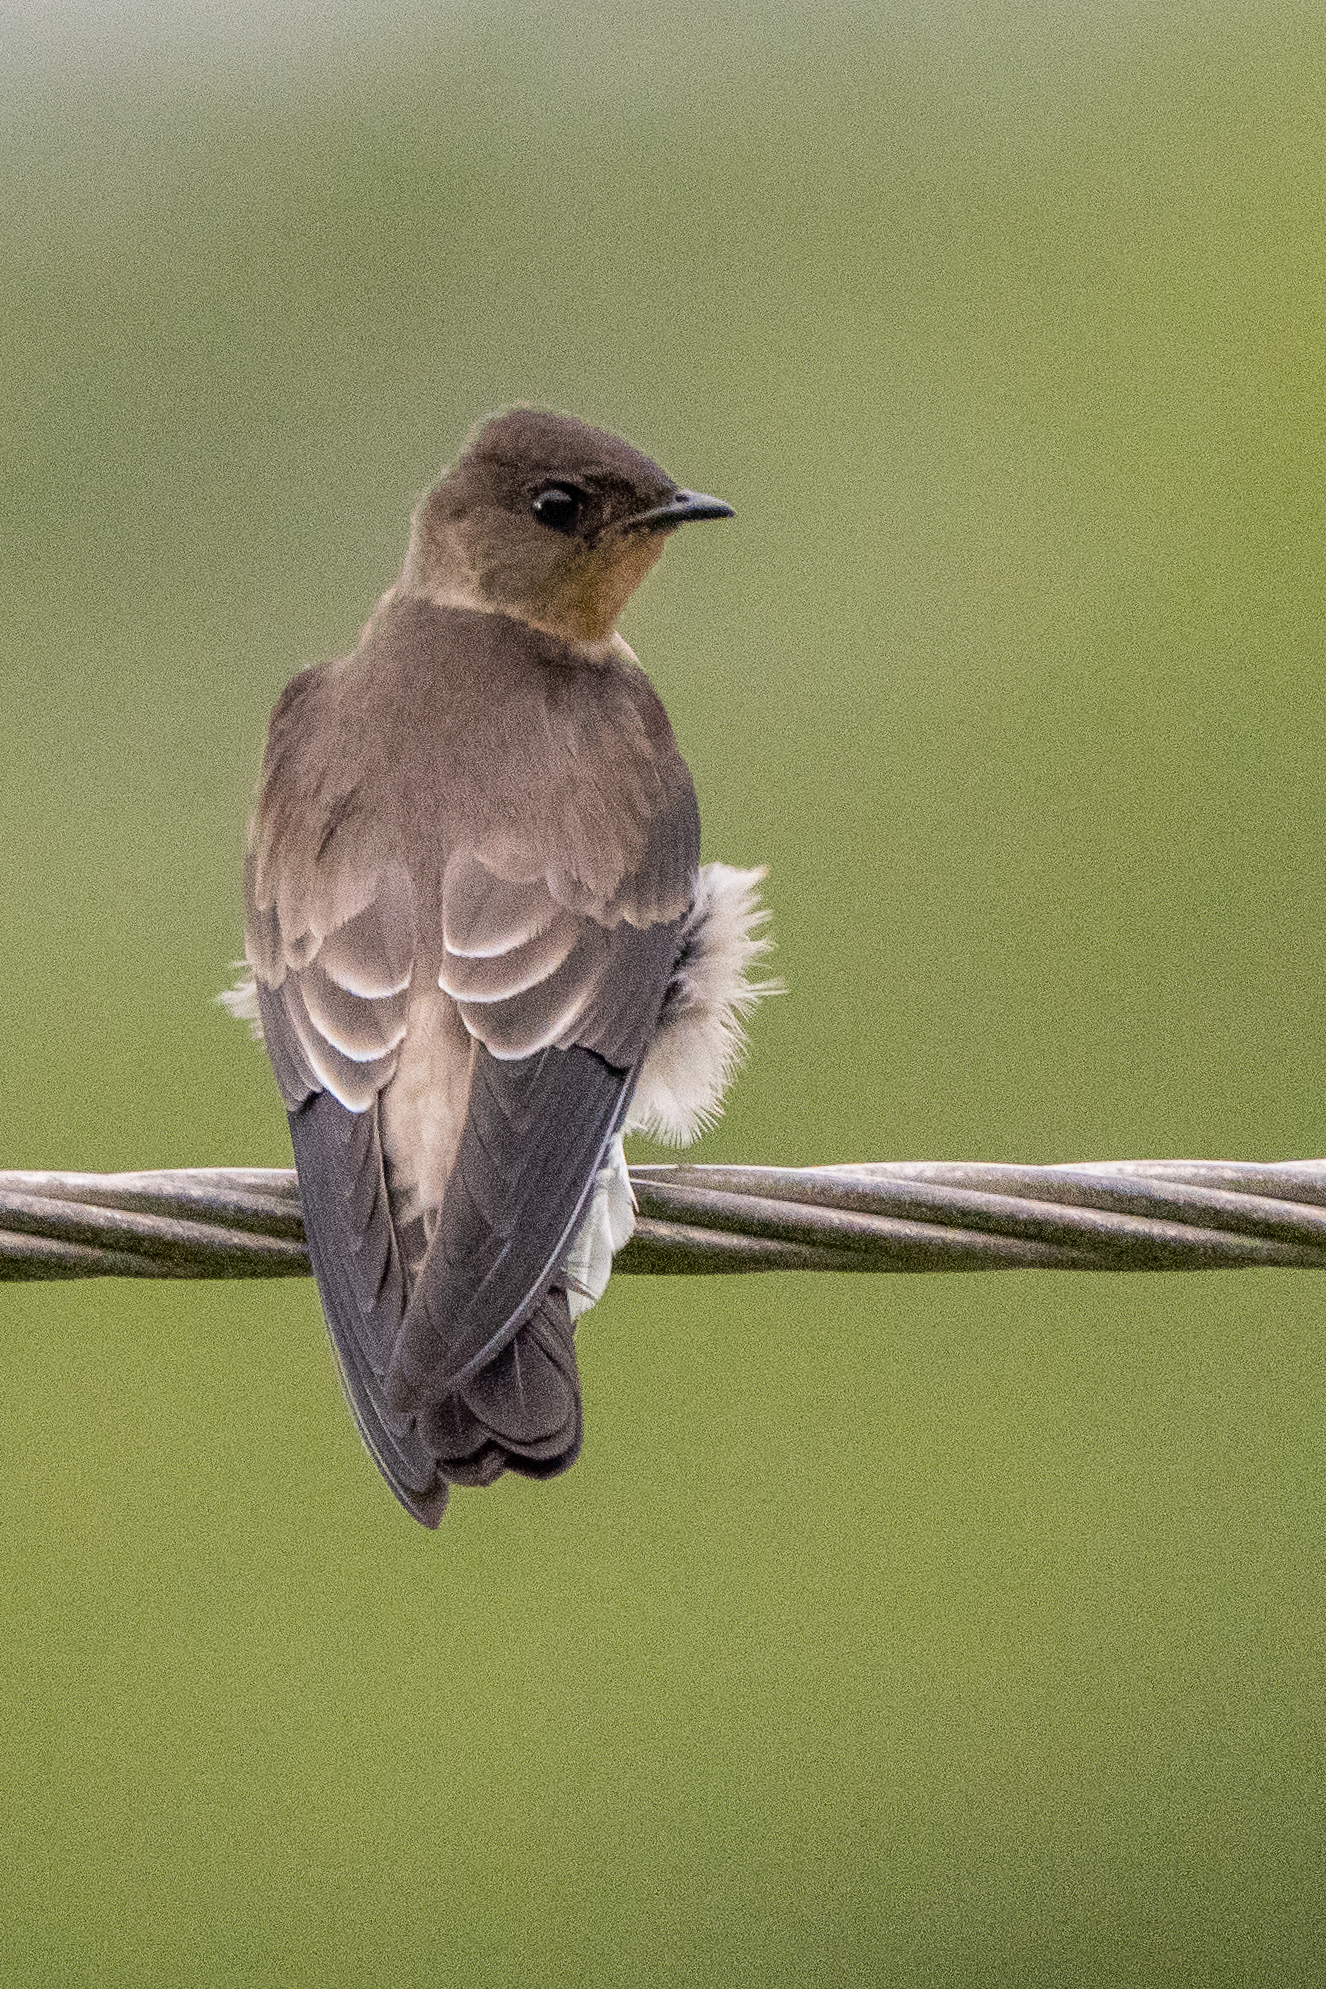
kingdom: Animalia
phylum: Chordata
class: Aves
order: Passeriformes
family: Hirundinidae
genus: Stelgidopteryx
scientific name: Stelgidopteryx ruficollis
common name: Southern rough-winged swallow
